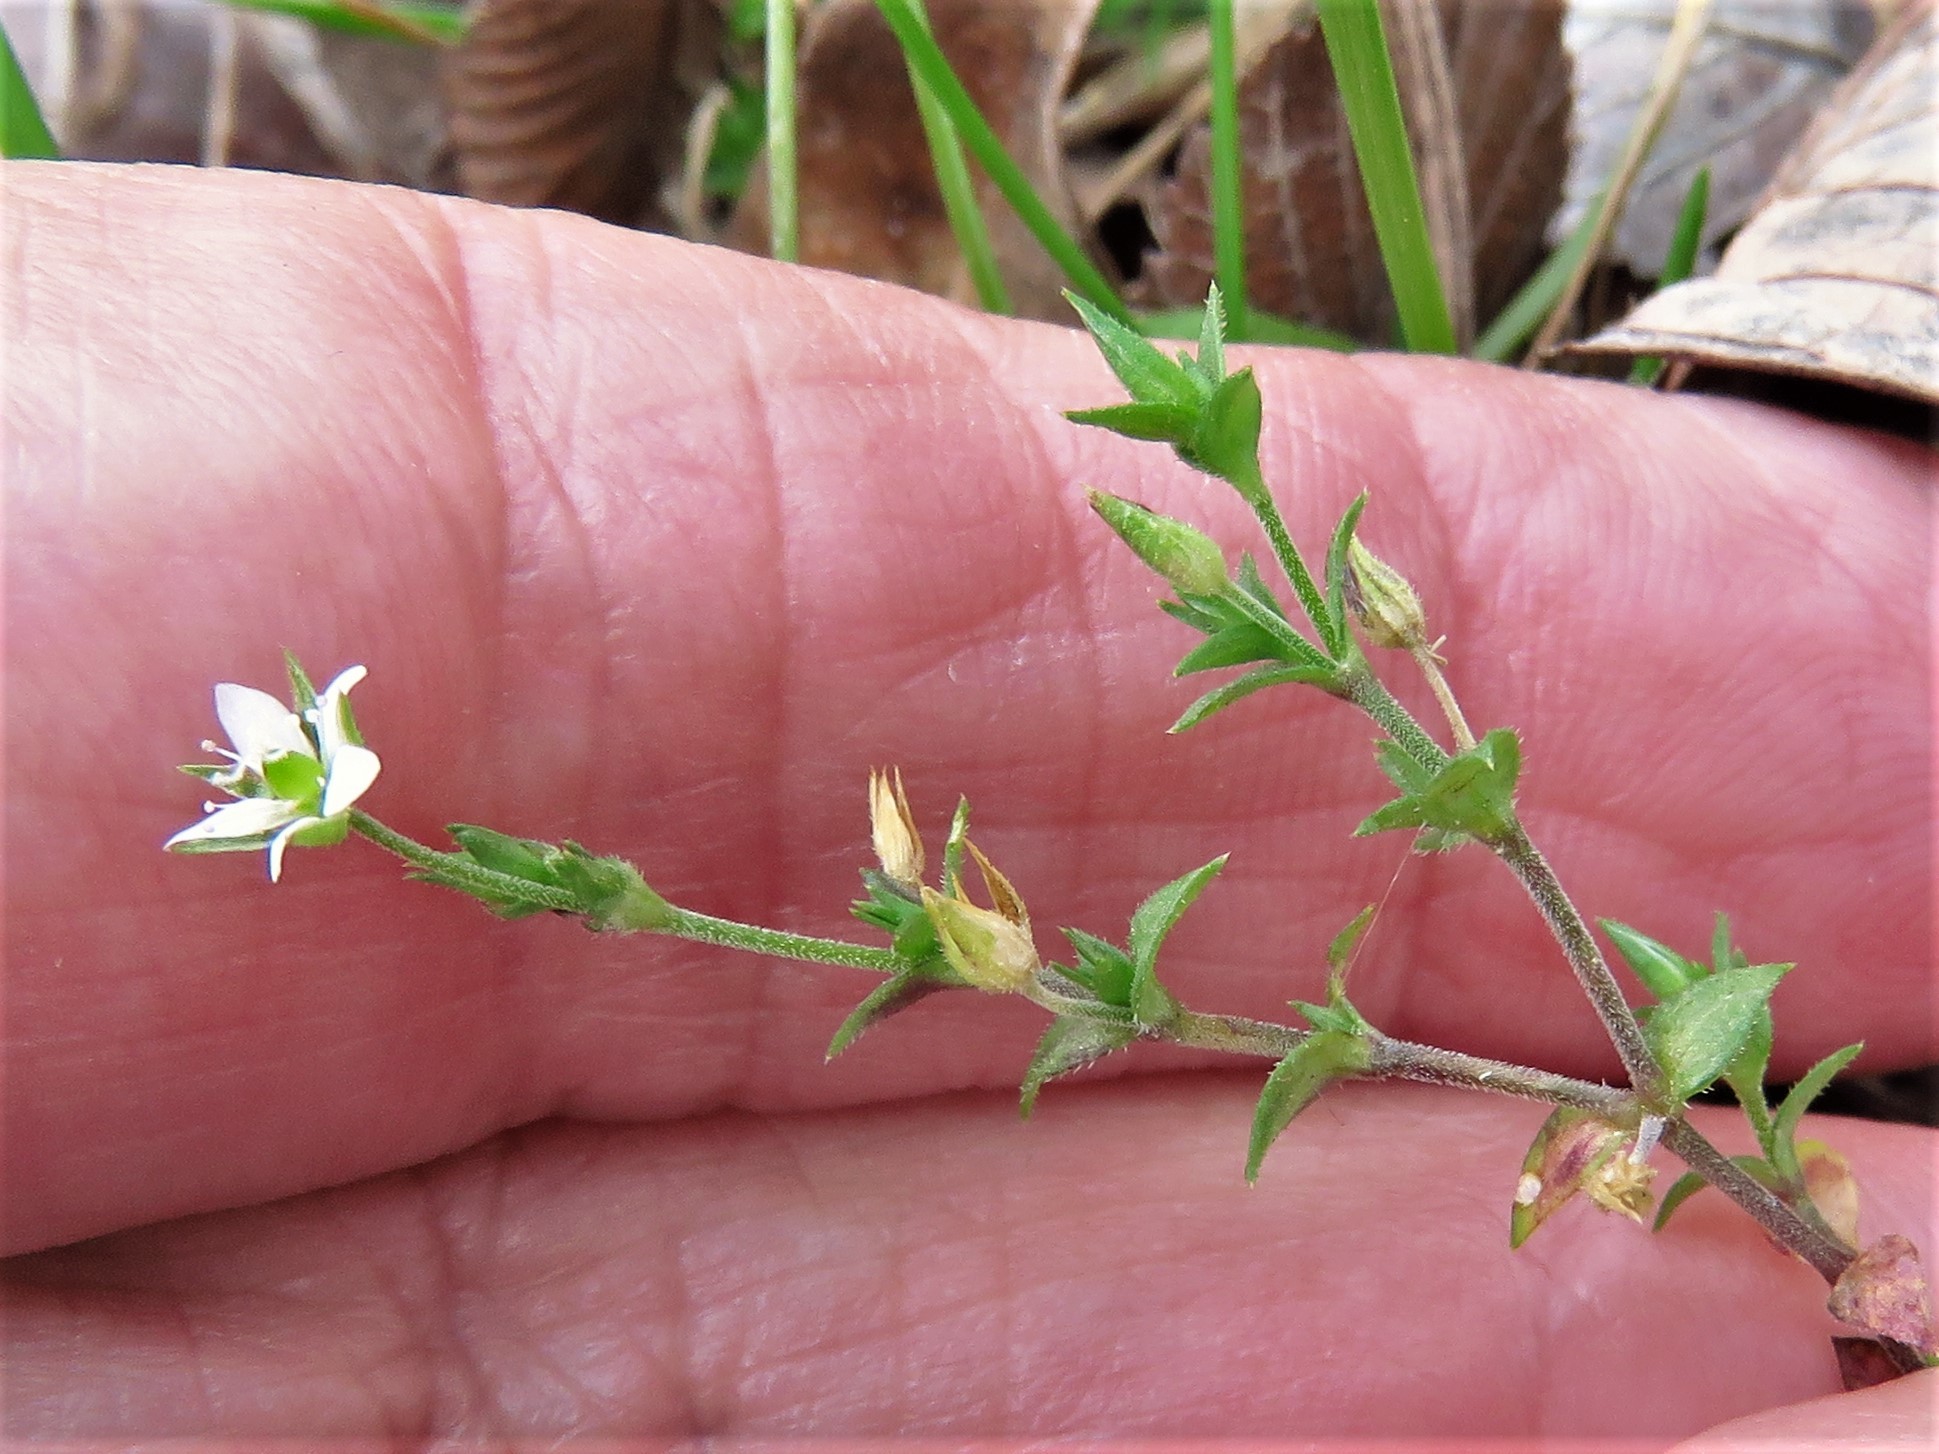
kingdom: Plantae
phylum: Tracheophyta
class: Magnoliopsida
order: Caryophyllales
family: Caryophyllaceae
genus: Arenaria
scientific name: Arenaria serpyllifolia
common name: Thyme-leaved sandwort
